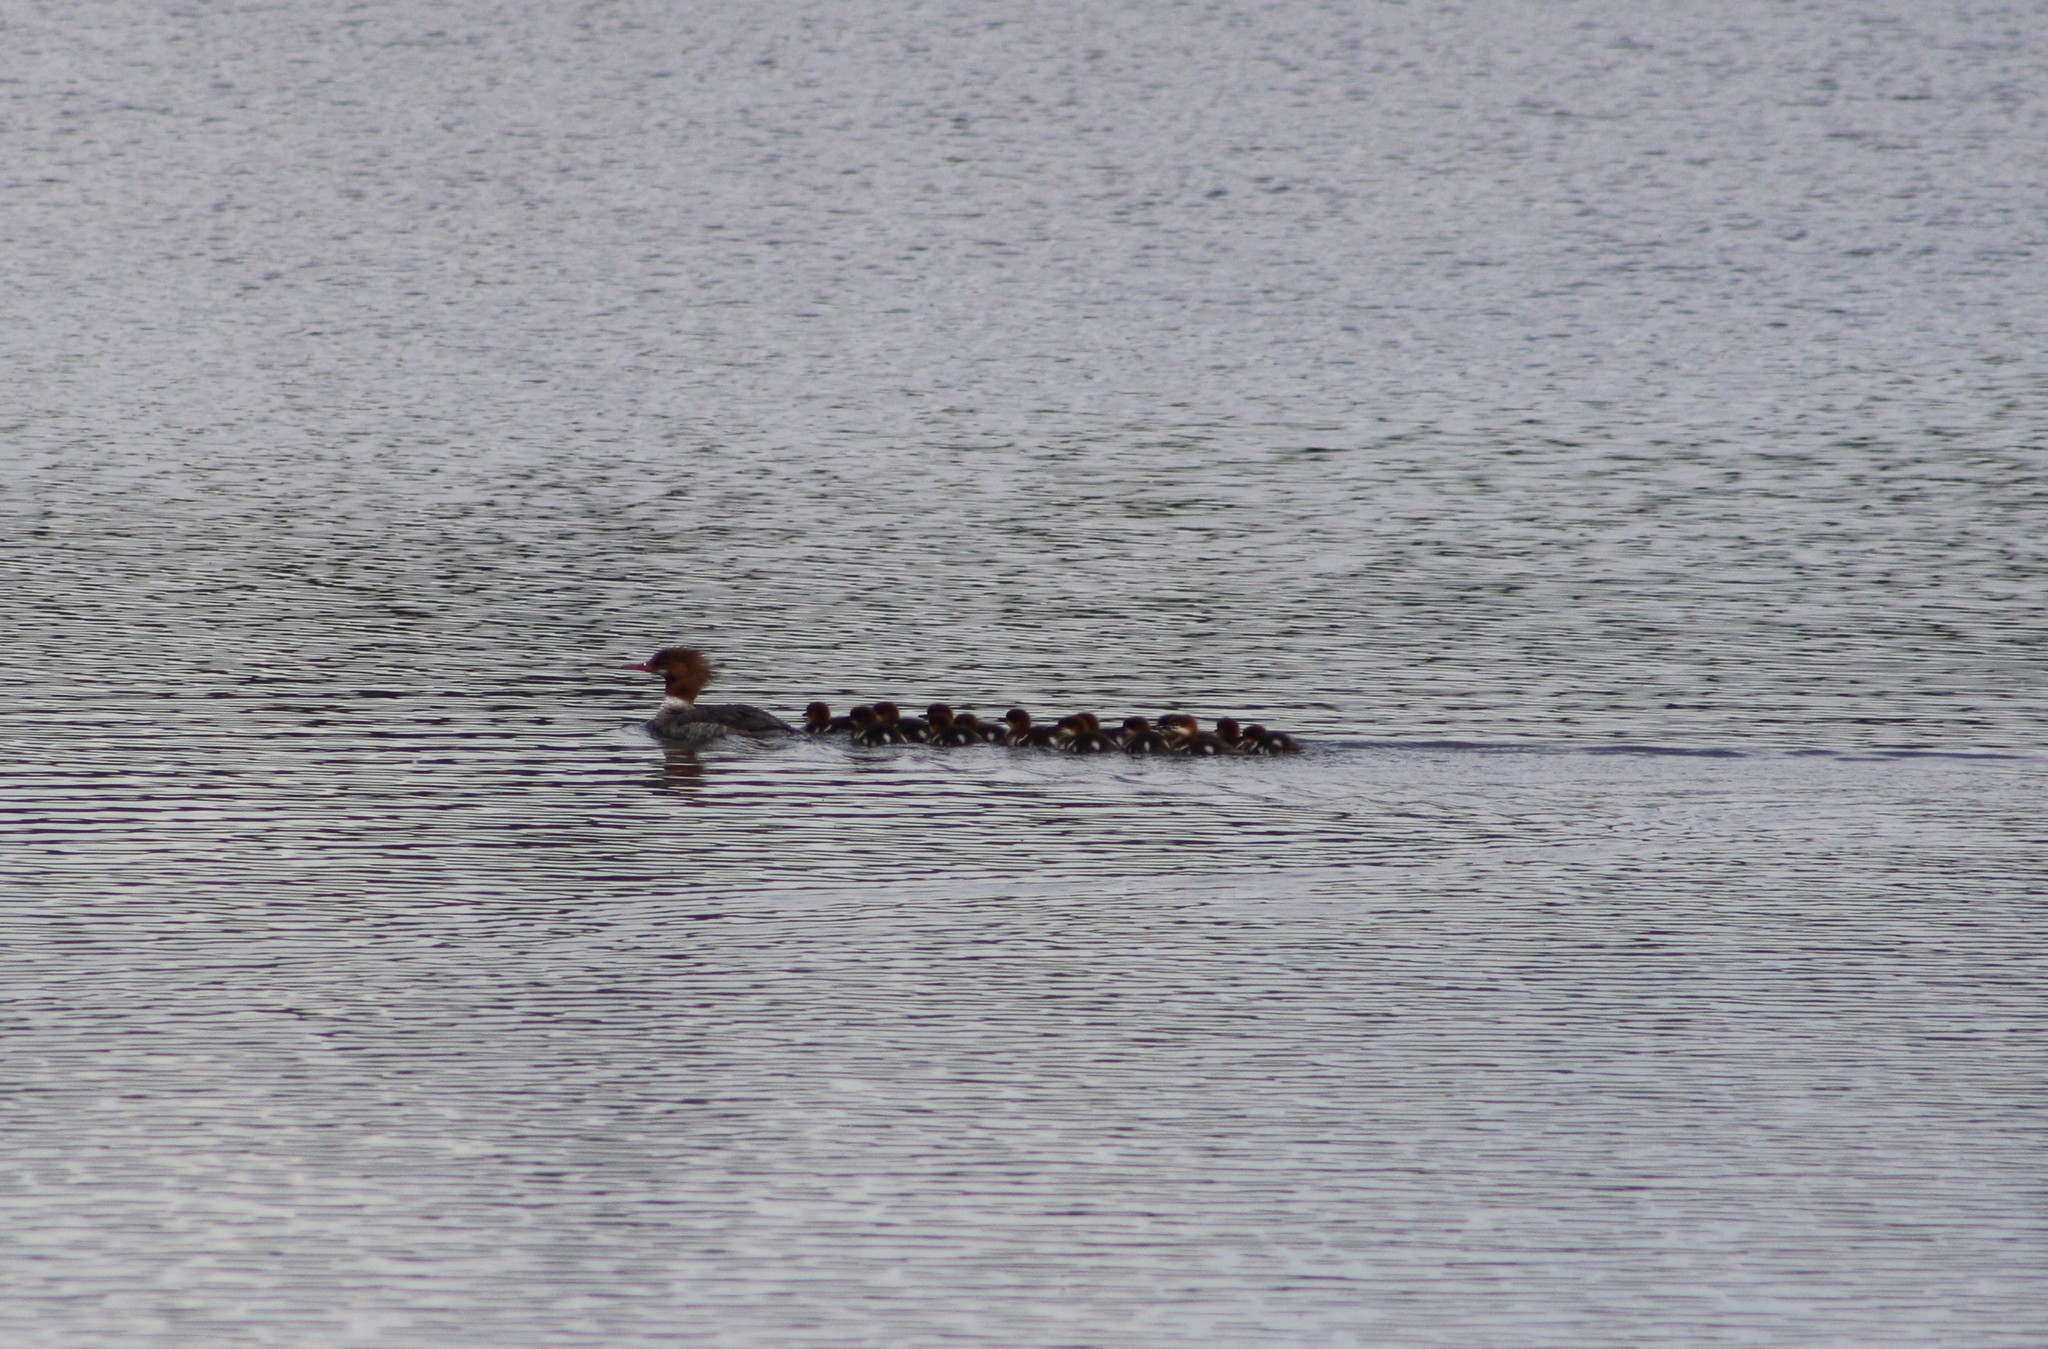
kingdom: Animalia
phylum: Chordata
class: Aves
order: Anseriformes
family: Anatidae
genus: Mergus
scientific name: Mergus merganser
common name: Common merganser
